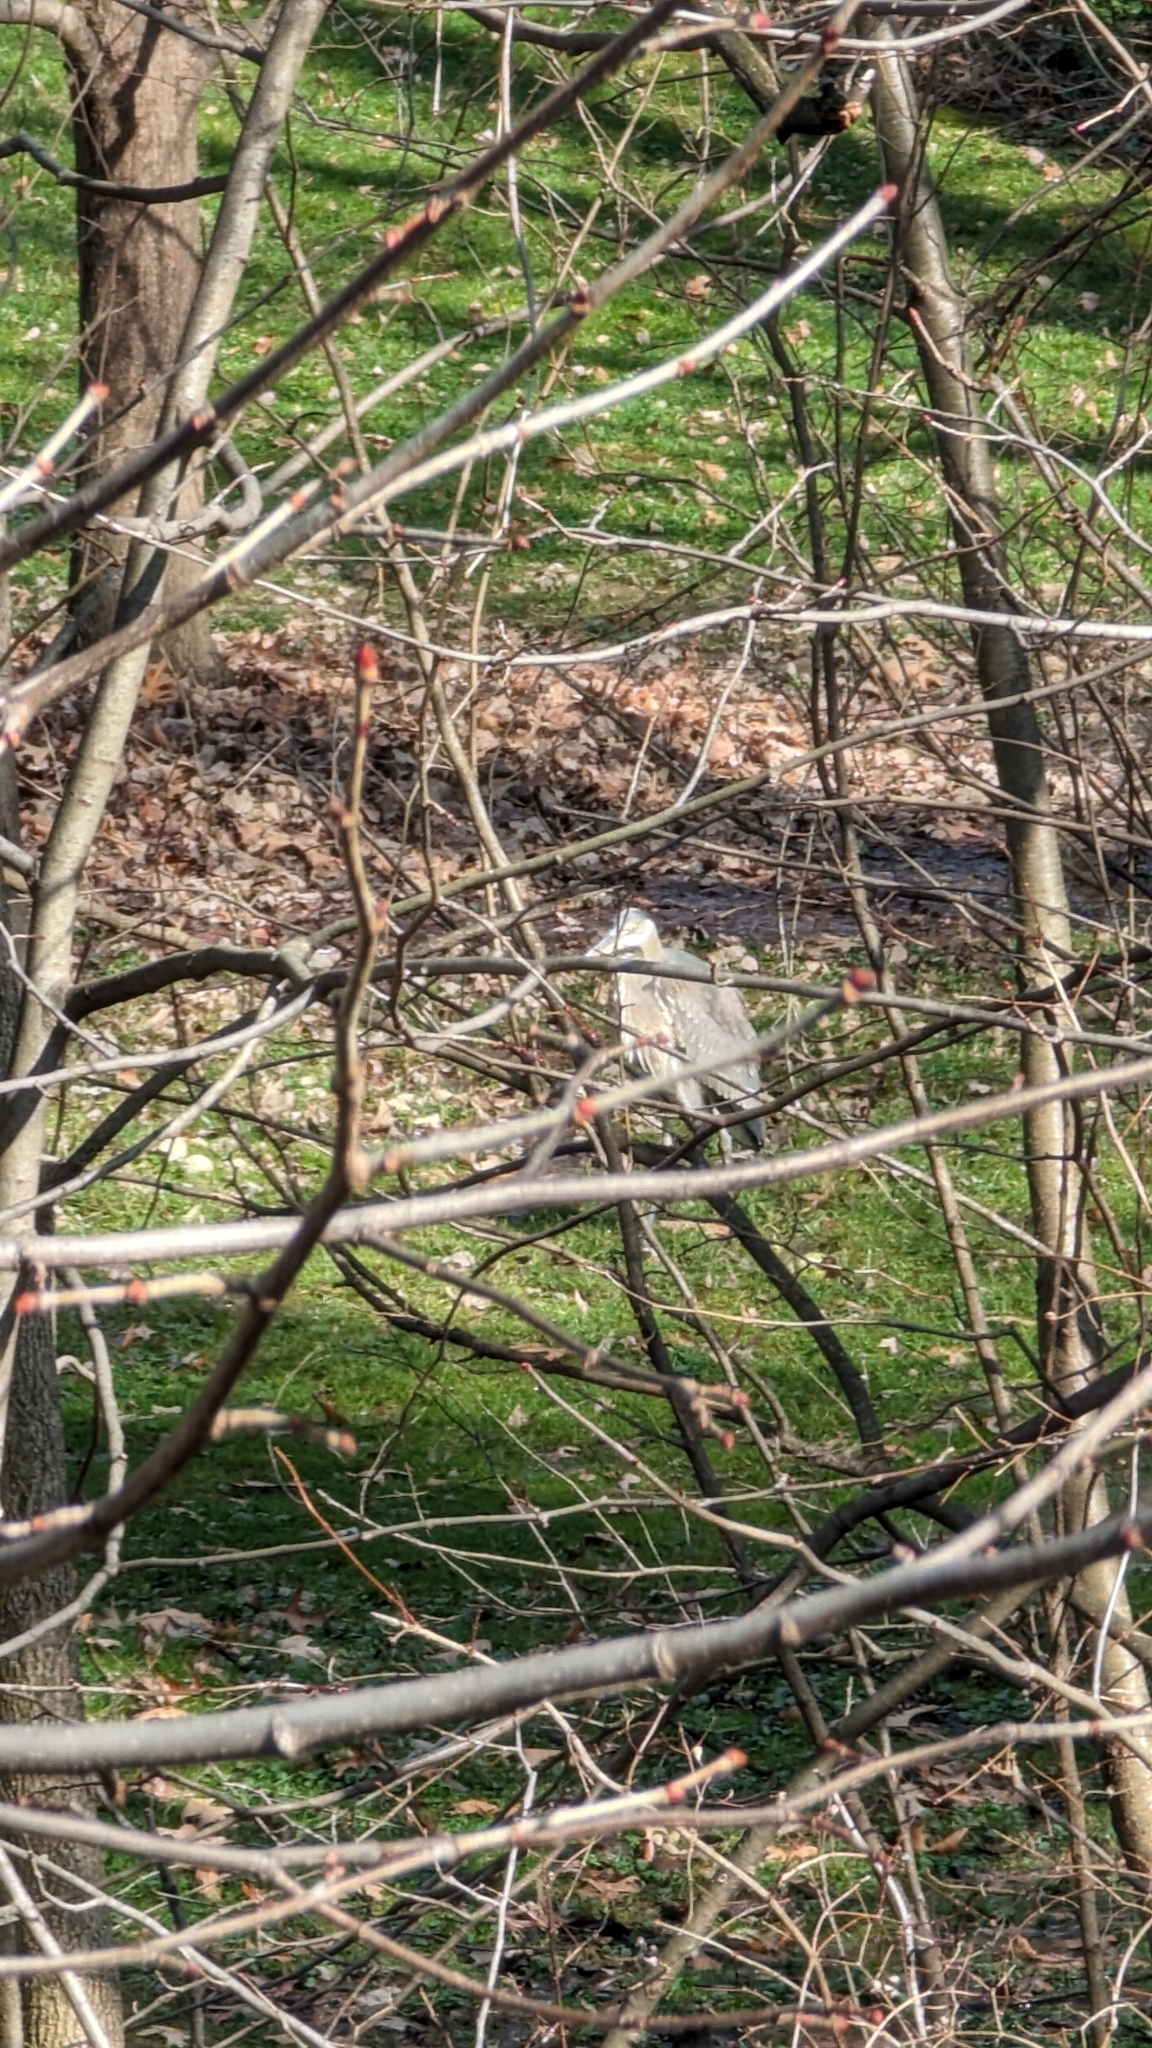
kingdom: Animalia
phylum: Chordata
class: Aves
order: Pelecaniformes
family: Ardeidae
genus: Ardea
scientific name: Ardea herodias
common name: Great blue heron
